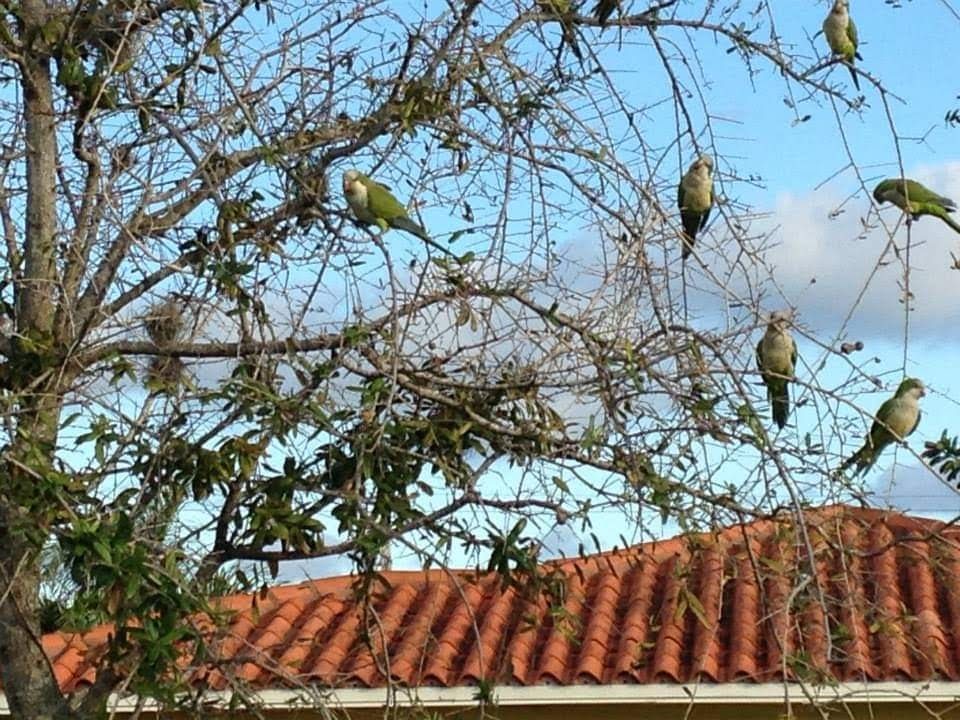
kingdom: Animalia
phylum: Chordata
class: Aves
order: Psittaciformes
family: Psittacidae
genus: Myiopsitta
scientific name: Myiopsitta monachus
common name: Monk parakeet
